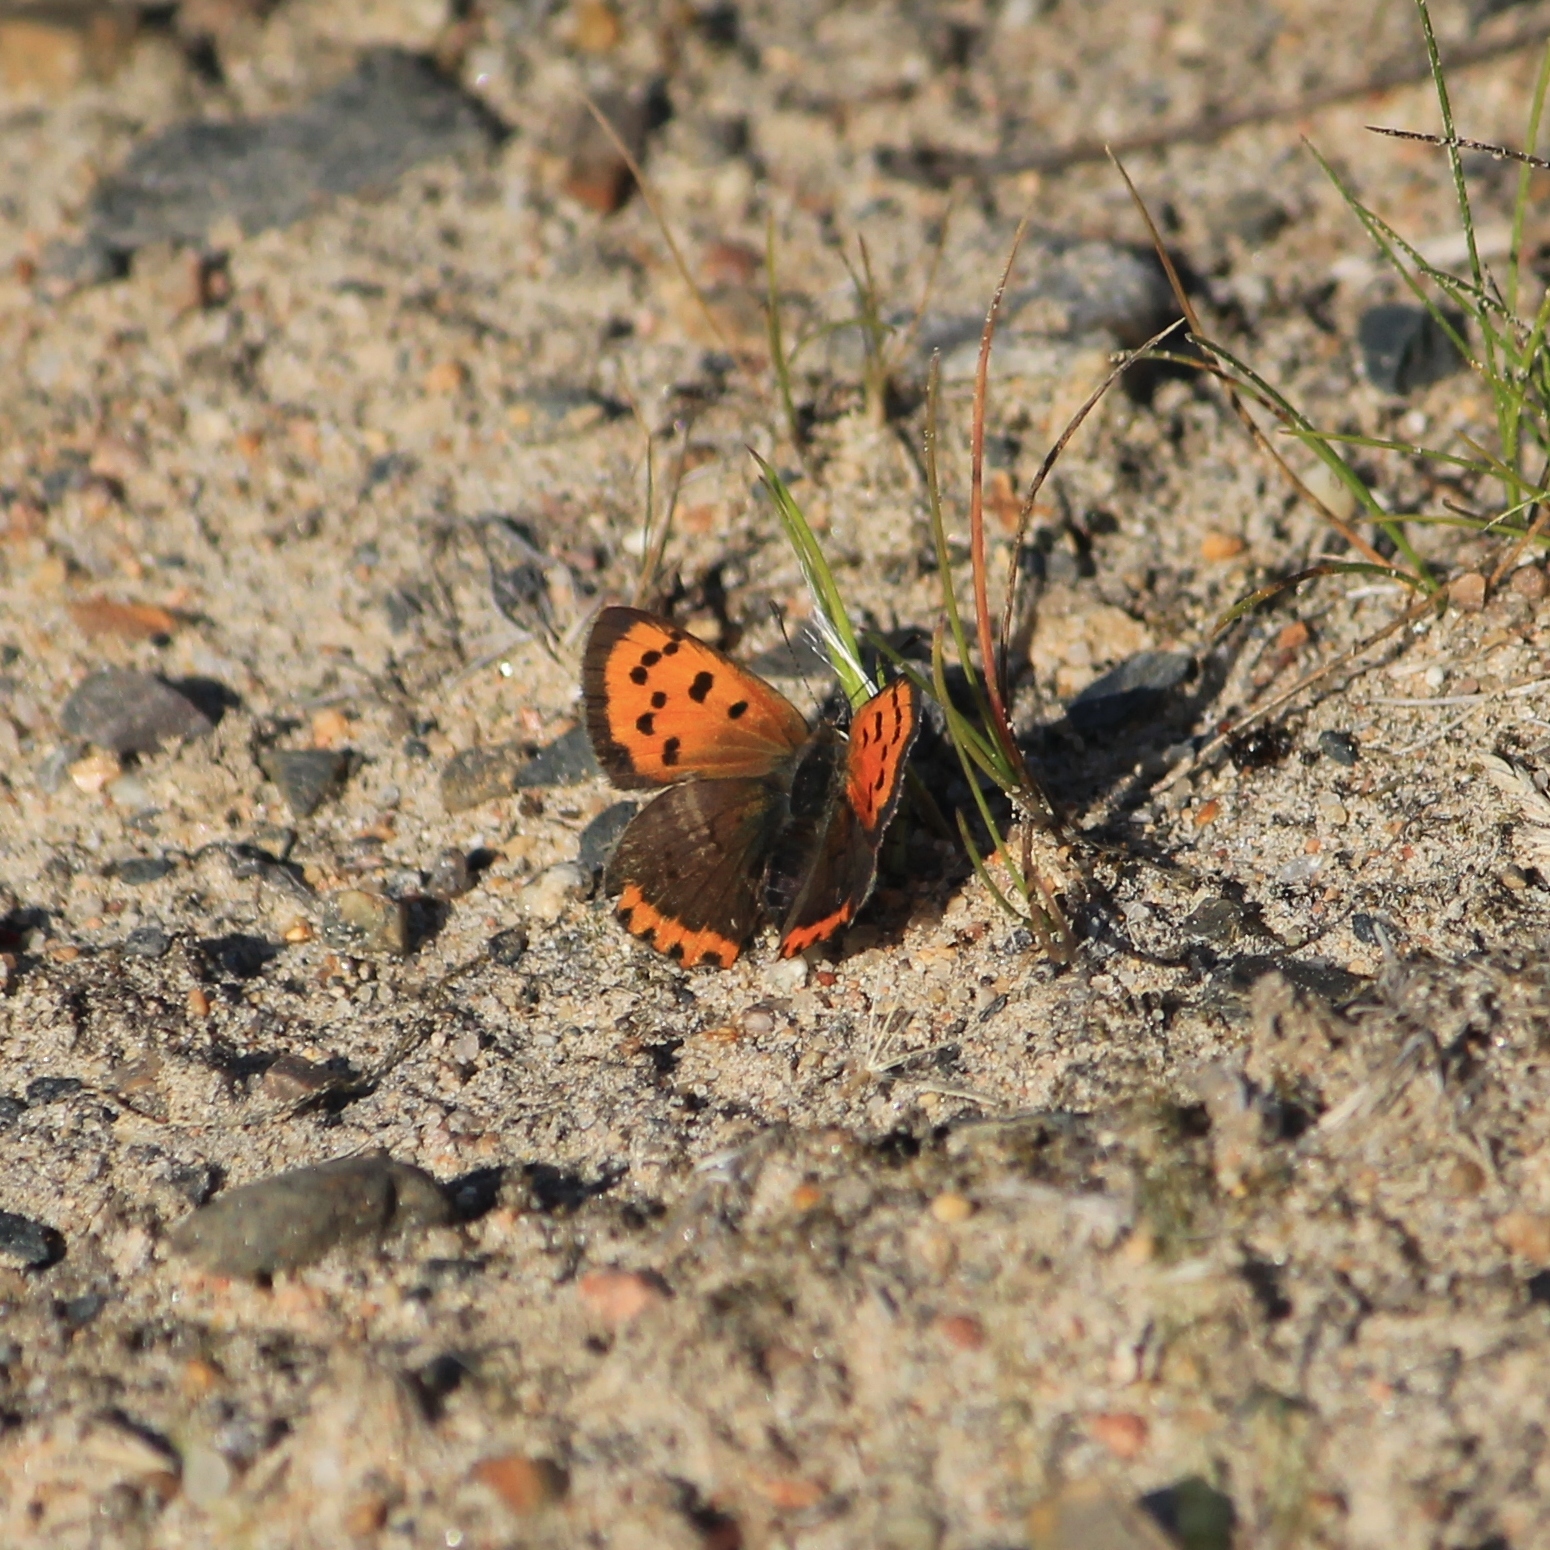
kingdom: Animalia
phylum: Arthropoda
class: Insecta
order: Lepidoptera
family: Lycaenidae
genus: Lycaena
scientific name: Lycaena phlaeas
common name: Small copper
